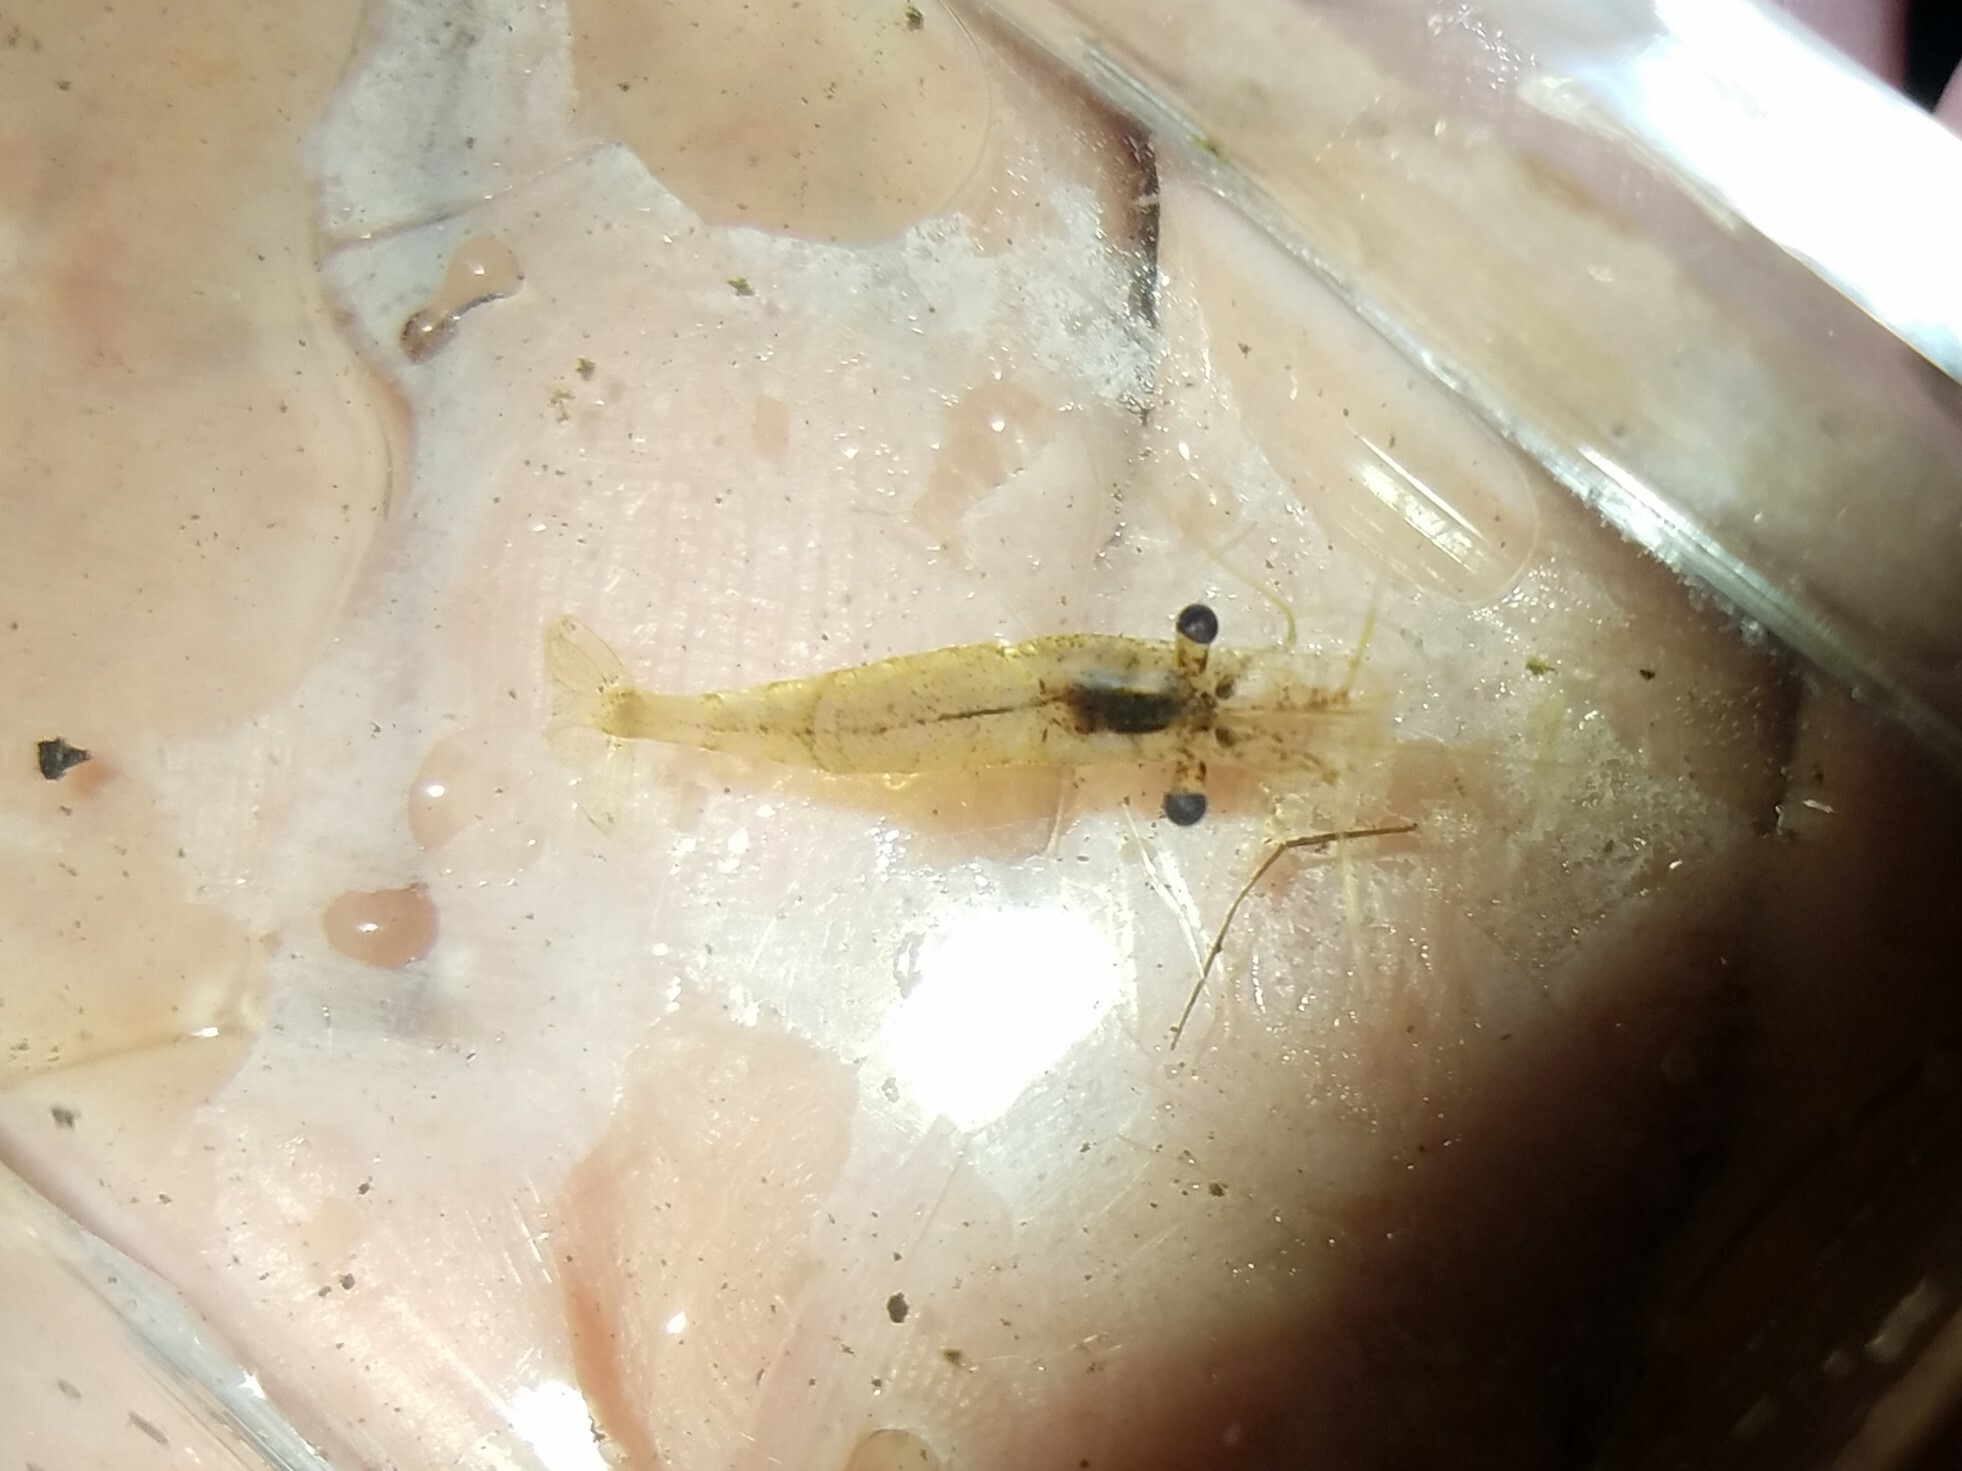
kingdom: Animalia
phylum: Arthropoda
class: Malacostraca
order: Decapoda
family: Palaemonidae
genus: Palaemon
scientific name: Palaemon
